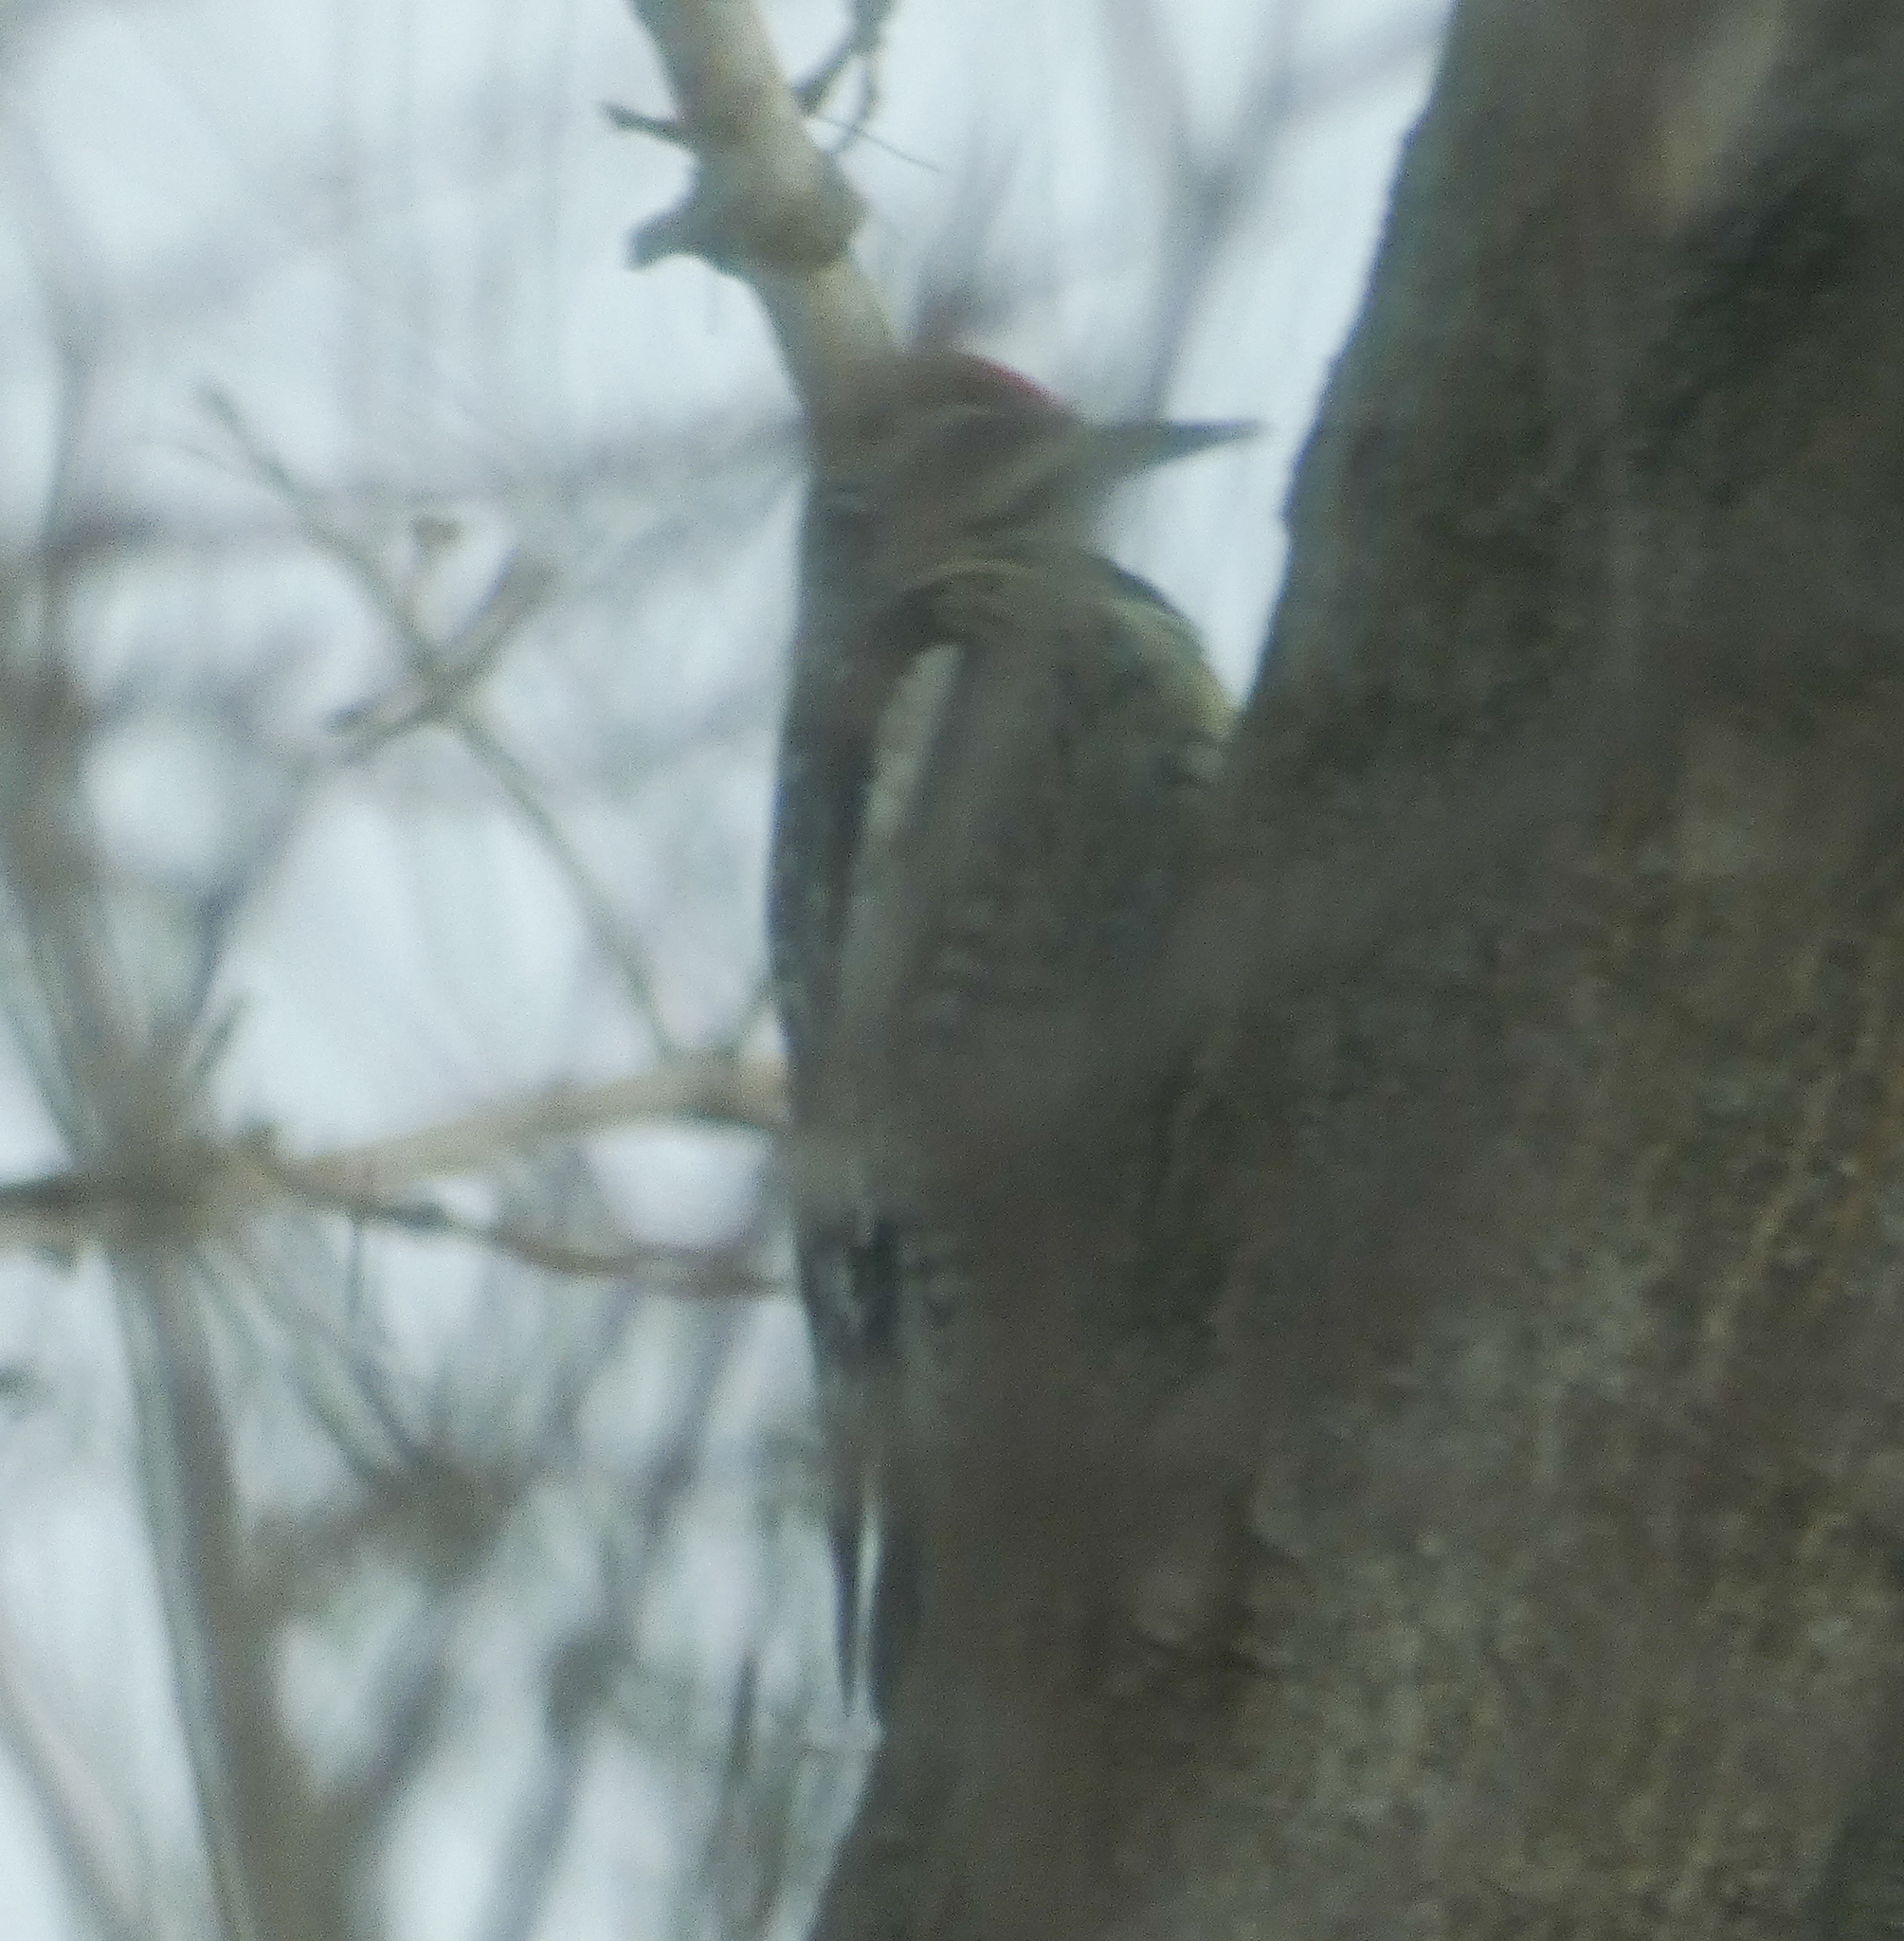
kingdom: Animalia
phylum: Chordata
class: Aves
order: Piciformes
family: Picidae
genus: Sphyrapicus
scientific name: Sphyrapicus varius
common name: Yellow-bellied sapsucker
